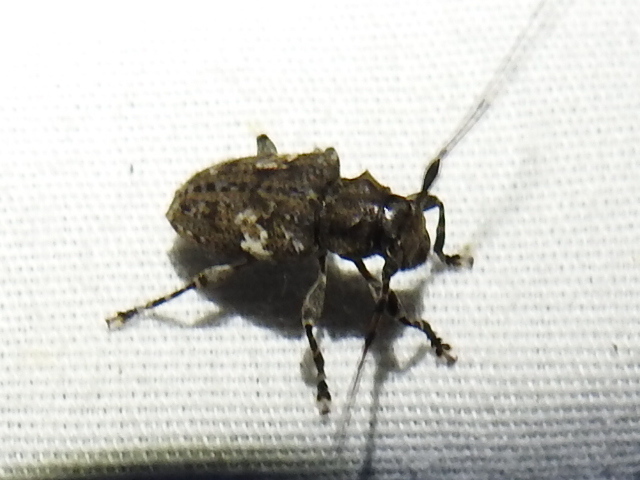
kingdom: Animalia
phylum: Arthropoda
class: Insecta
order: Coleoptera
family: Cerambycidae
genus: Acanthoderes
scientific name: Acanthoderes quadrigibba
